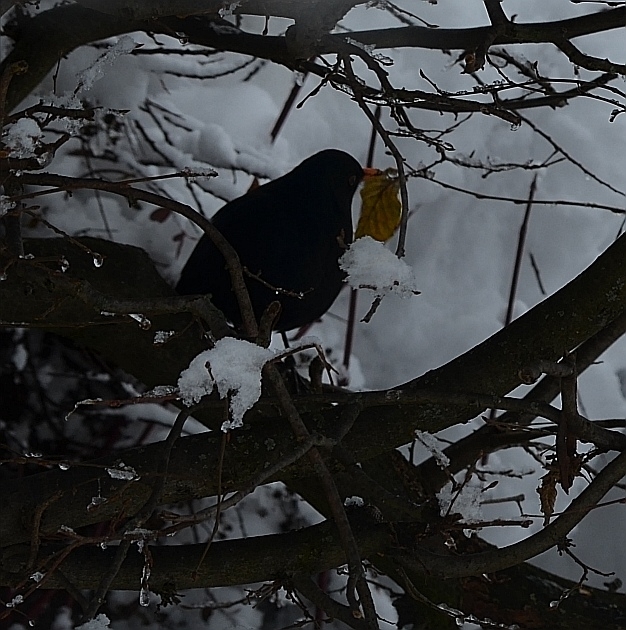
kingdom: Animalia
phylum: Chordata
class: Aves
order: Passeriformes
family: Turdidae
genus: Turdus
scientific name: Turdus merula
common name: Common blackbird
